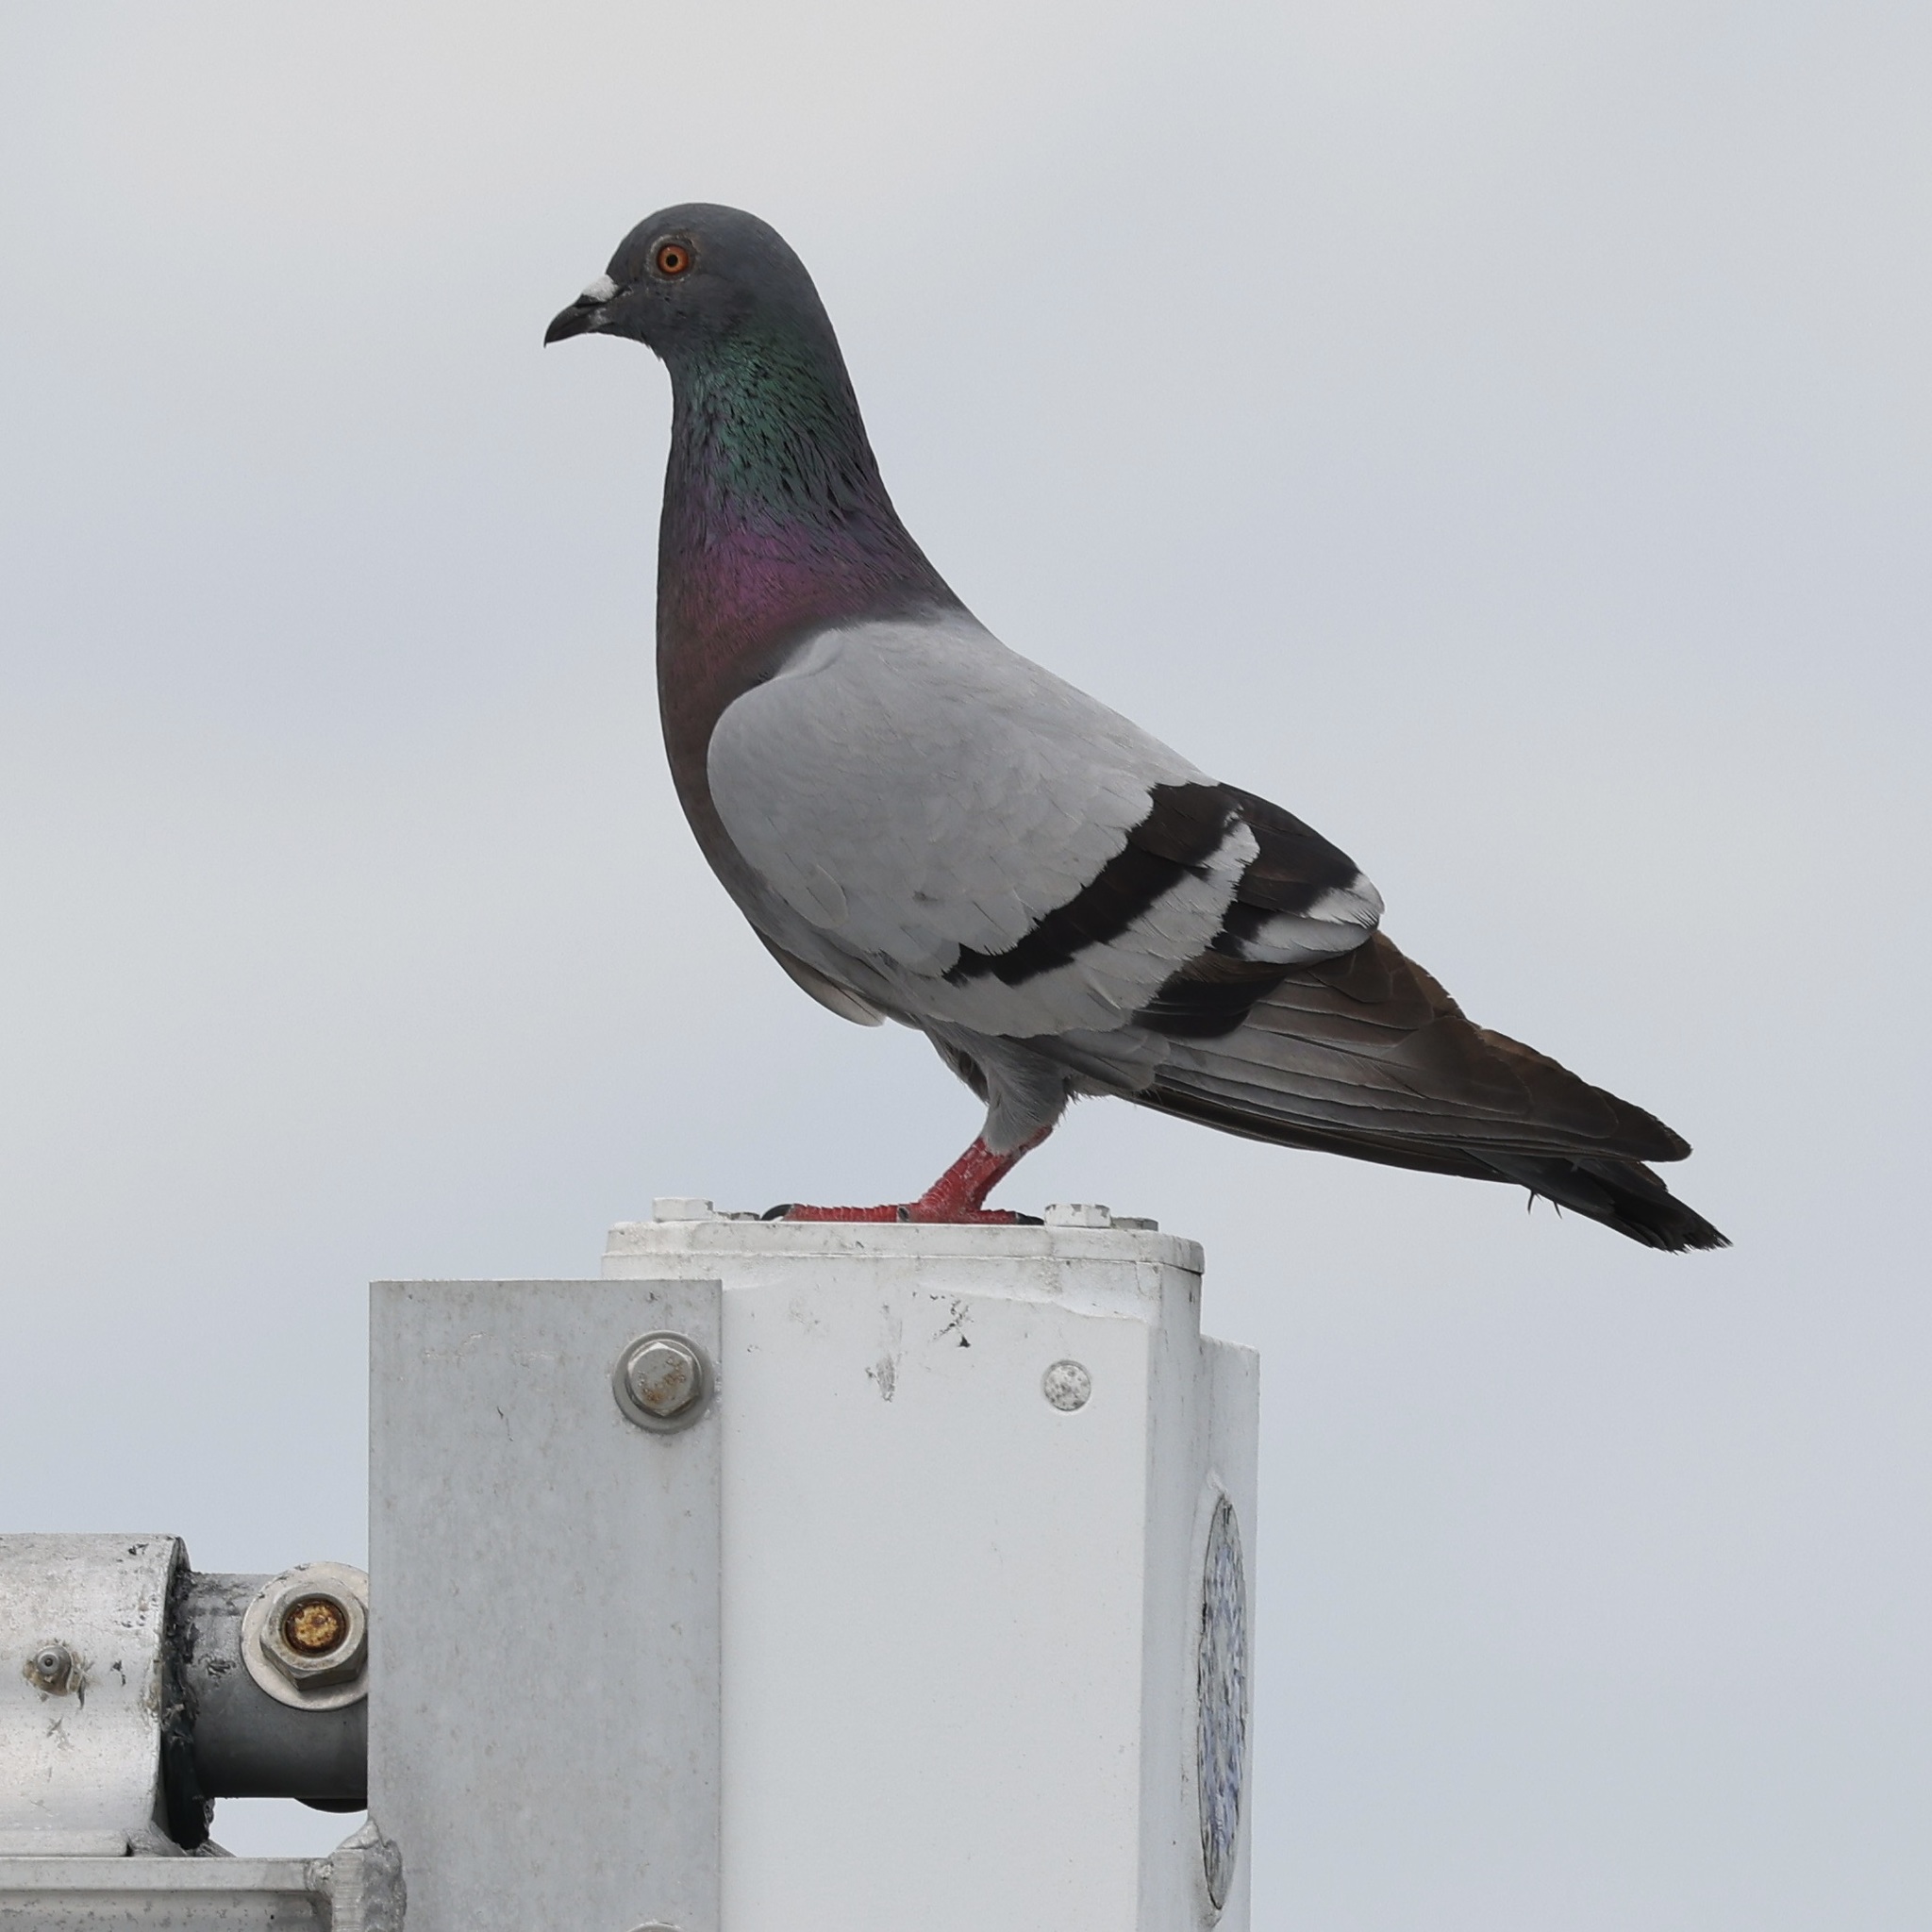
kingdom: Animalia
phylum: Chordata
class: Aves
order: Columbiformes
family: Columbidae
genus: Columba
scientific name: Columba livia
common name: Rock pigeon
